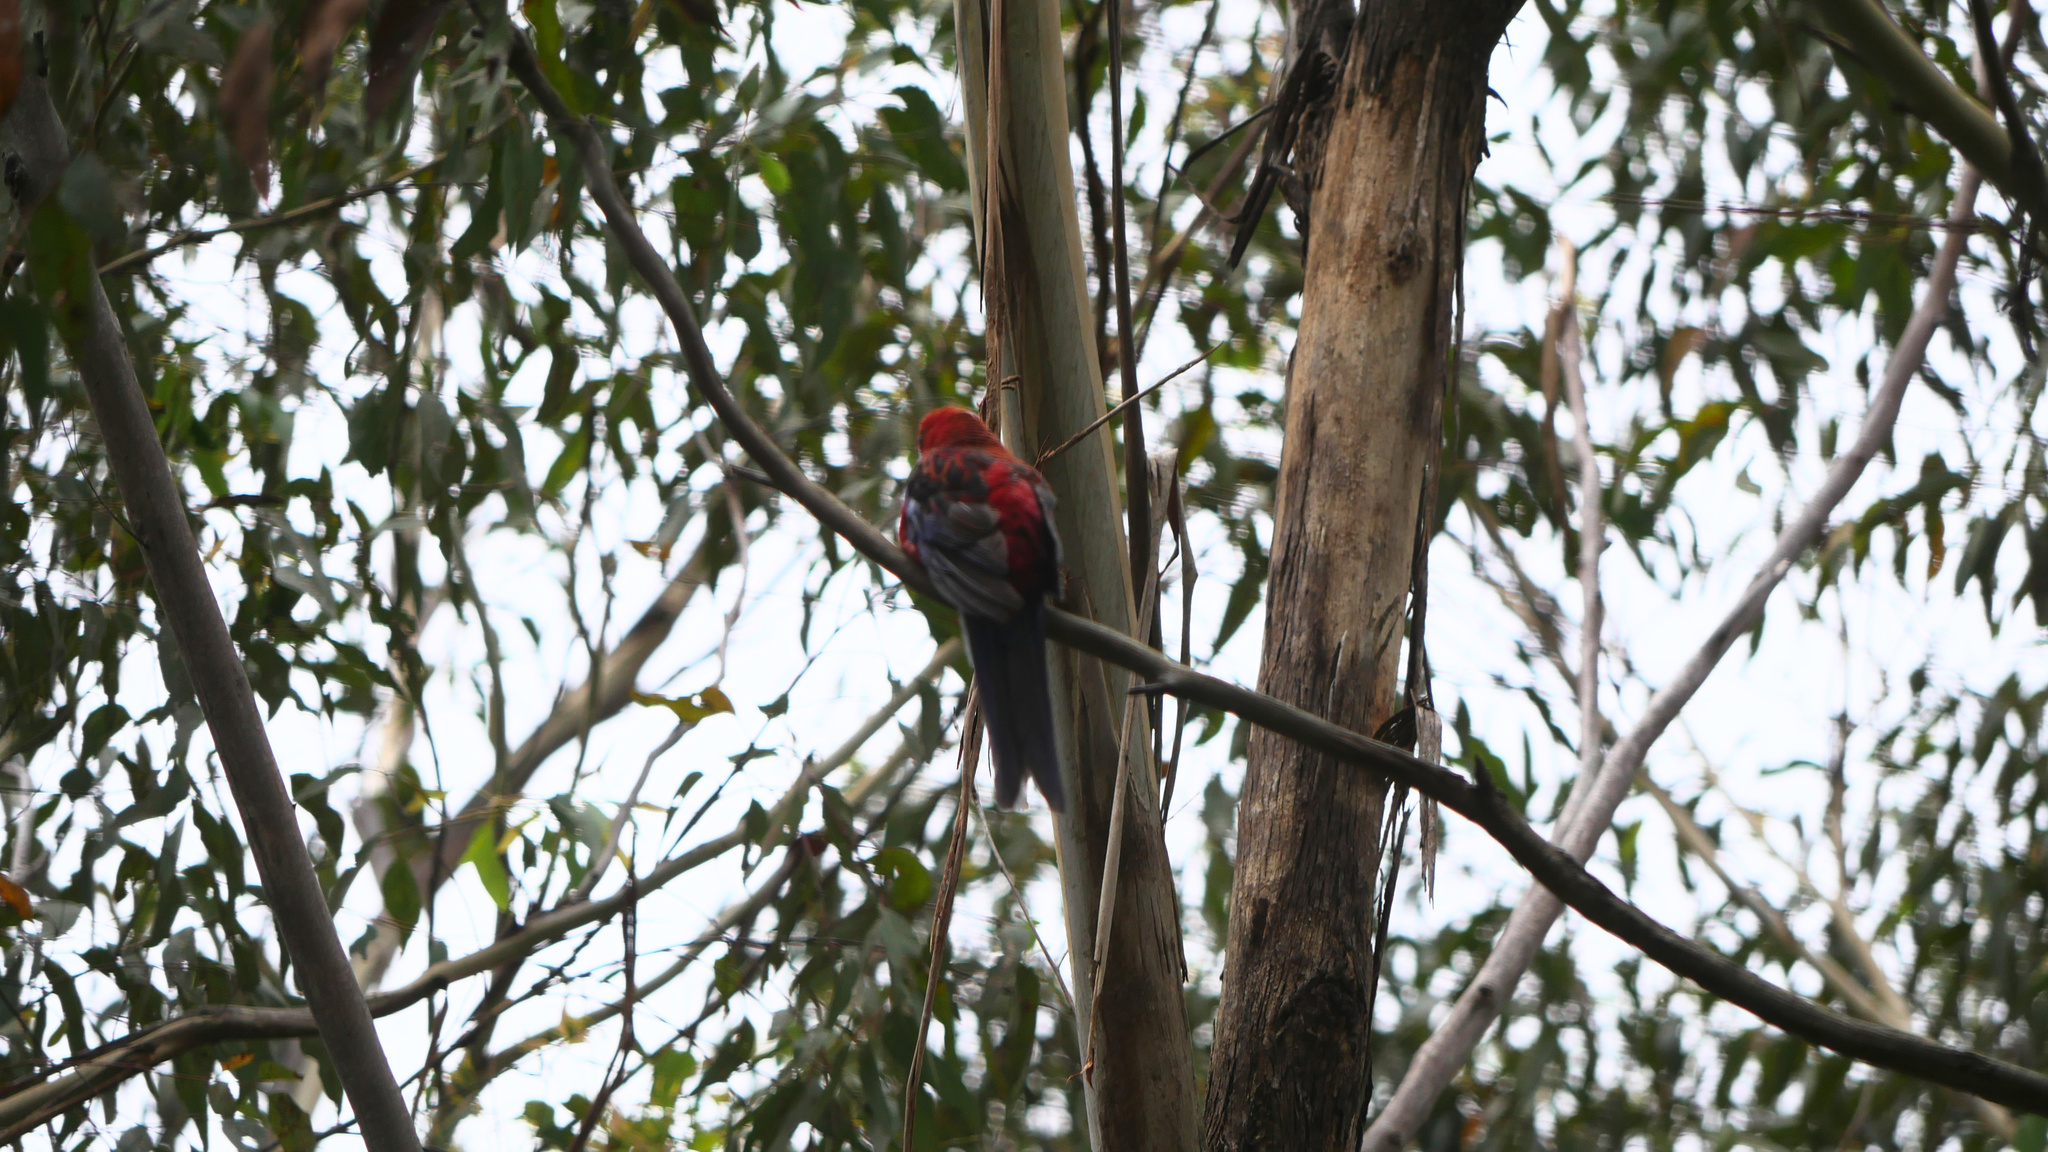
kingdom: Animalia
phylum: Chordata
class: Aves
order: Psittaciformes
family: Psittacidae
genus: Platycercus
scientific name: Platycercus elegans
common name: Crimson rosella
